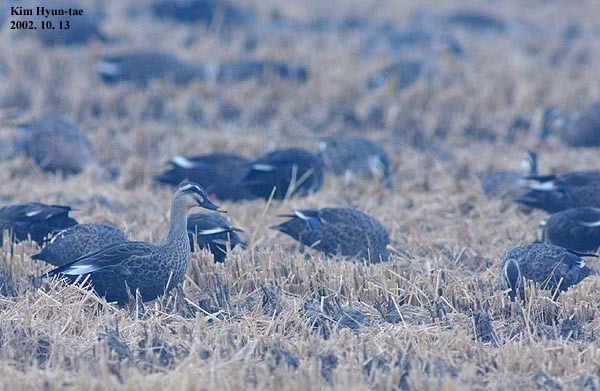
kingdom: Animalia
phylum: Chordata
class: Aves
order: Anseriformes
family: Anatidae
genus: Anas
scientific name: Anas zonorhyncha
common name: Eastern spot-billed duck
